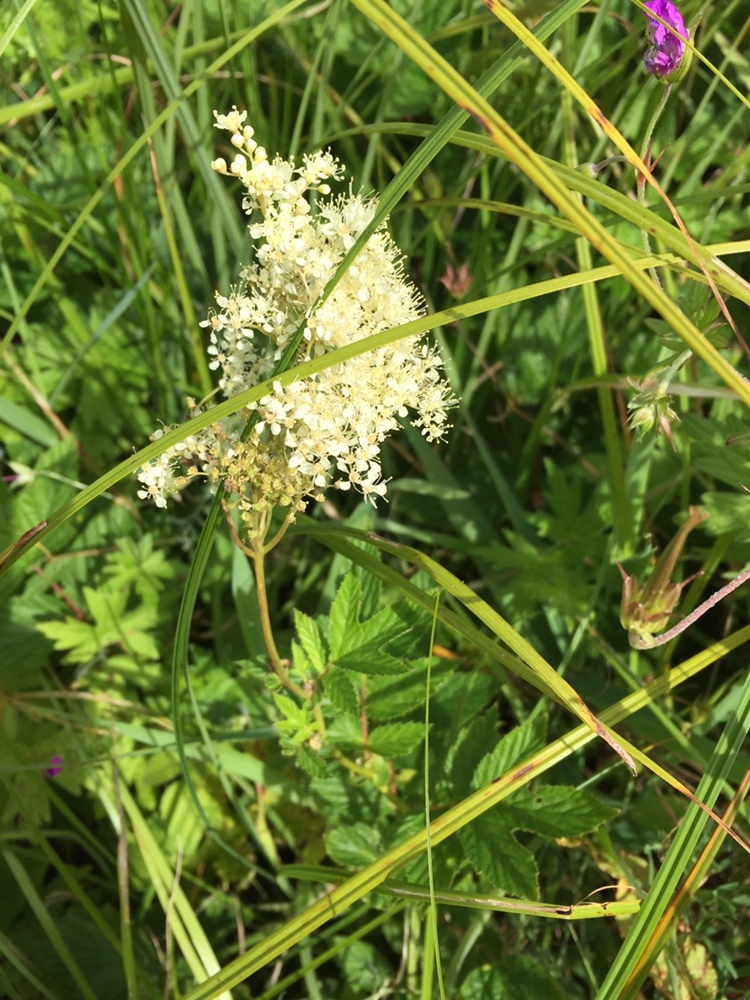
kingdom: Plantae
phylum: Tracheophyta
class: Magnoliopsida
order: Rosales
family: Rosaceae
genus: Filipendula
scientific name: Filipendula ulmaria
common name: Meadowsweet
